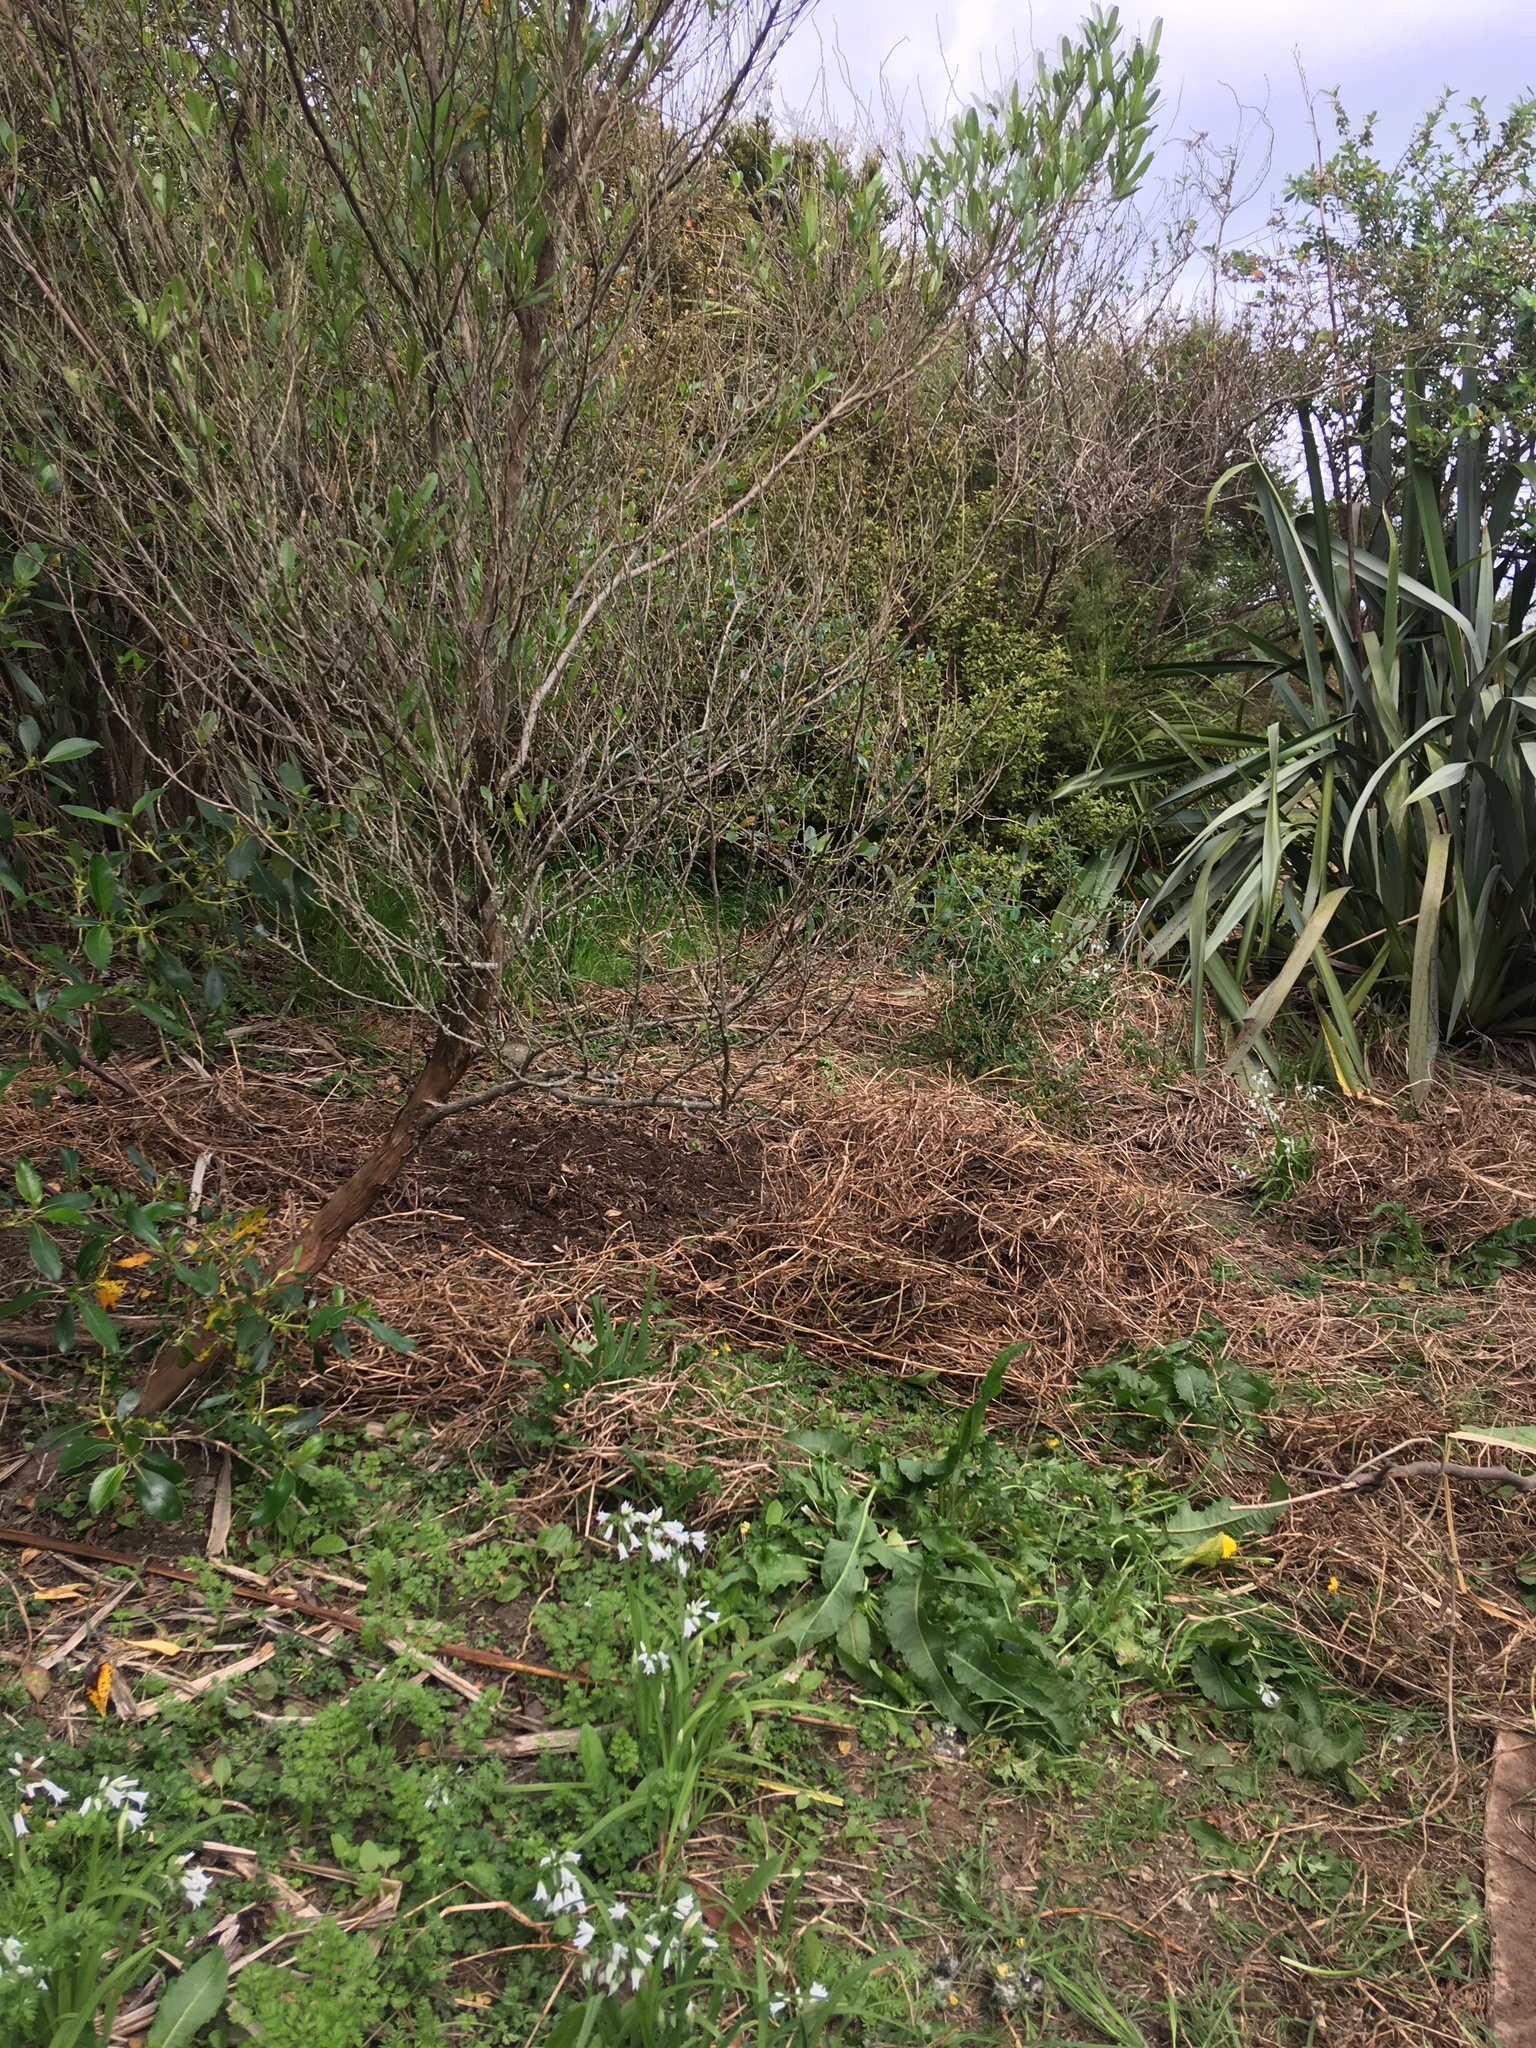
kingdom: Plantae
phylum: Tracheophyta
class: Magnoliopsida
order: Sapindales
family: Sapindaceae
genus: Dodonaea
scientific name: Dodonaea viscosa
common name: Hopbush
